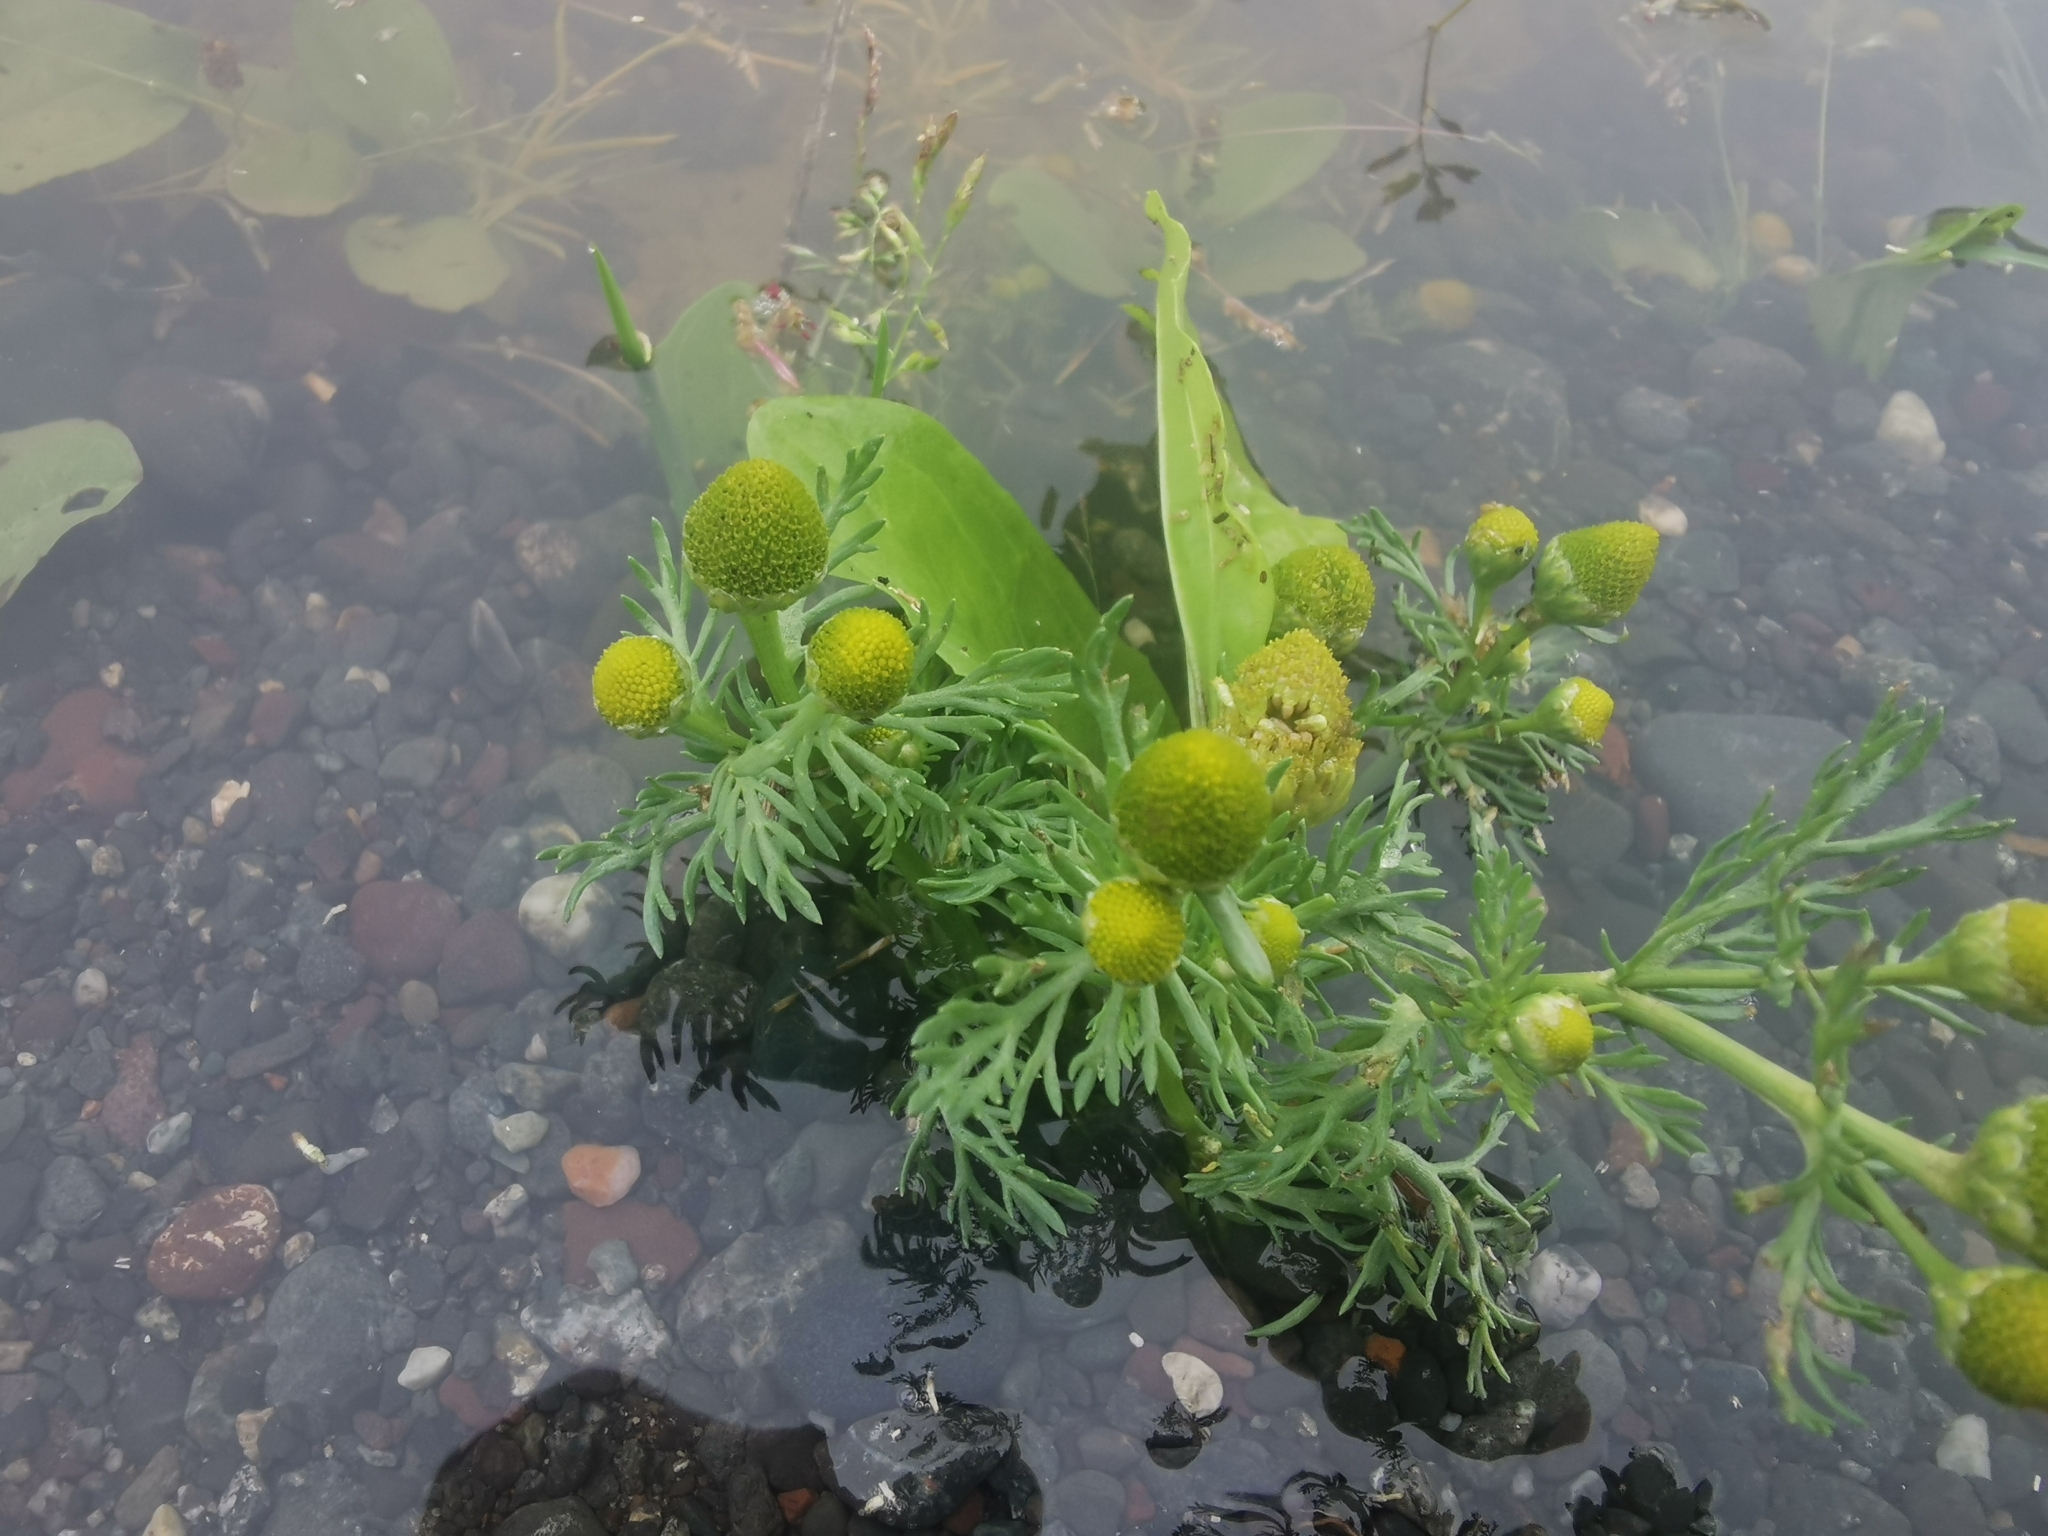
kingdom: Plantae
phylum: Tracheophyta
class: Magnoliopsida
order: Asterales
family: Asteraceae
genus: Matricaria
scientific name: Matricaria discoidea
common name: Disc mayweed
